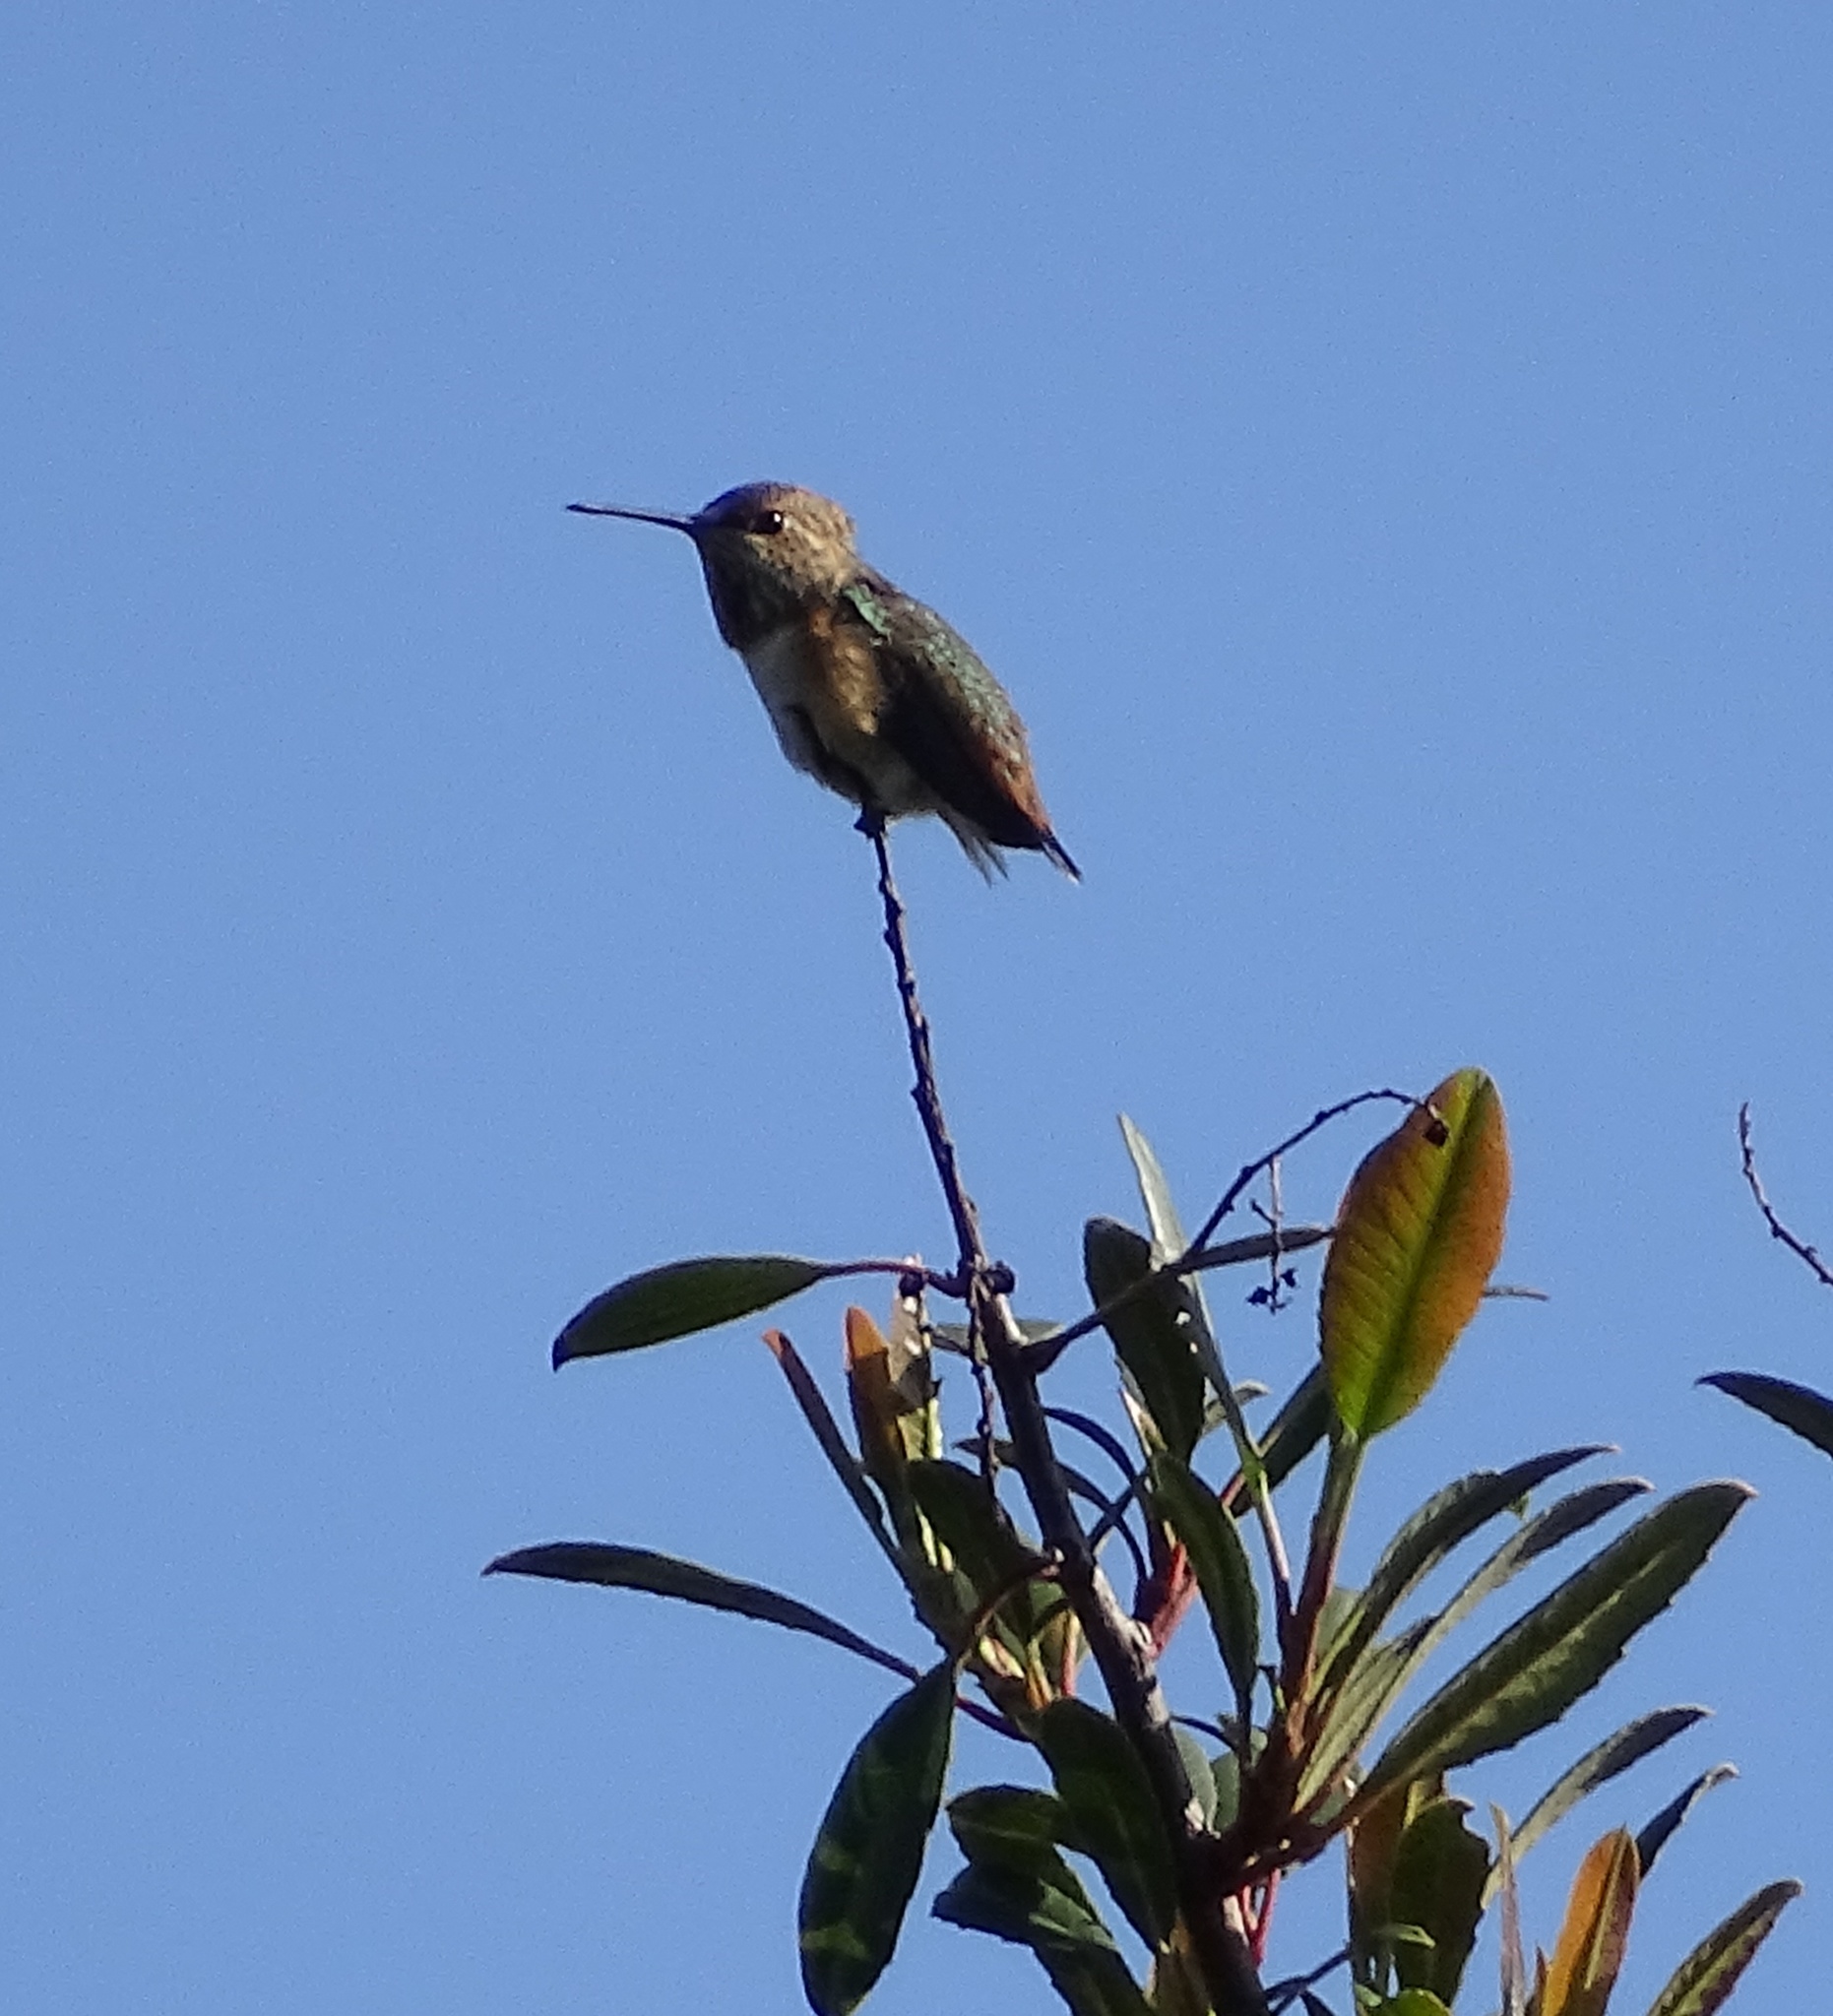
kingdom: Animalia
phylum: Chordata
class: Aves
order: Apodiformes
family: Trochilidae
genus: Selasphorus
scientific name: Selasphorus
